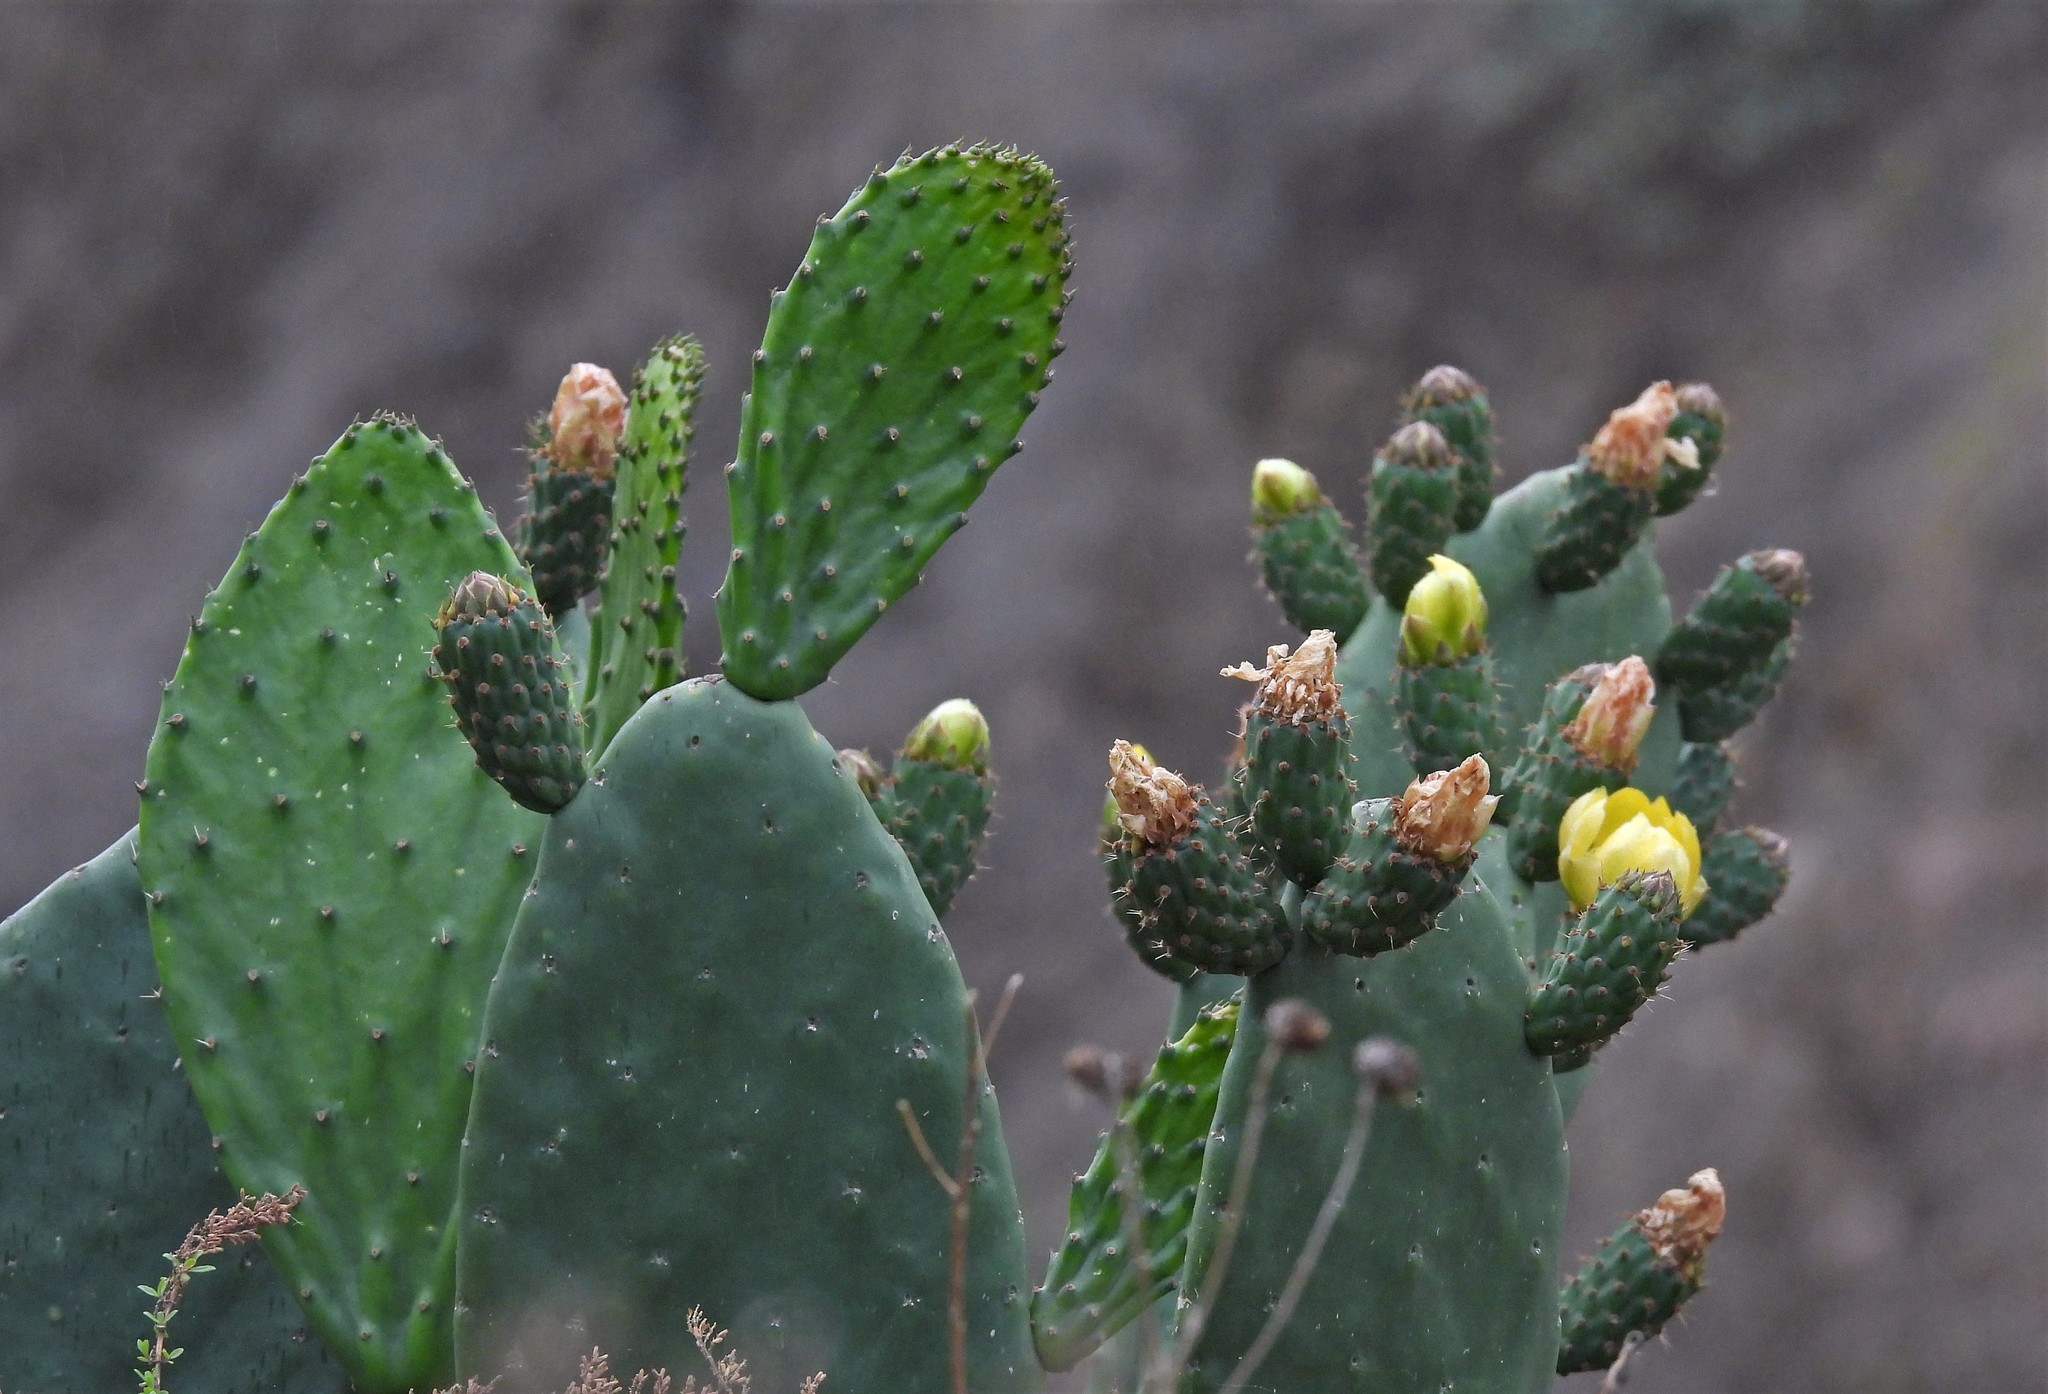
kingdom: Plantae
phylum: Tracheophyta
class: Magnoliopsida
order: Caryophyllales
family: Cactaceae
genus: Opuntia
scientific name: Opuntia ficus-indica
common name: Barbary fig
